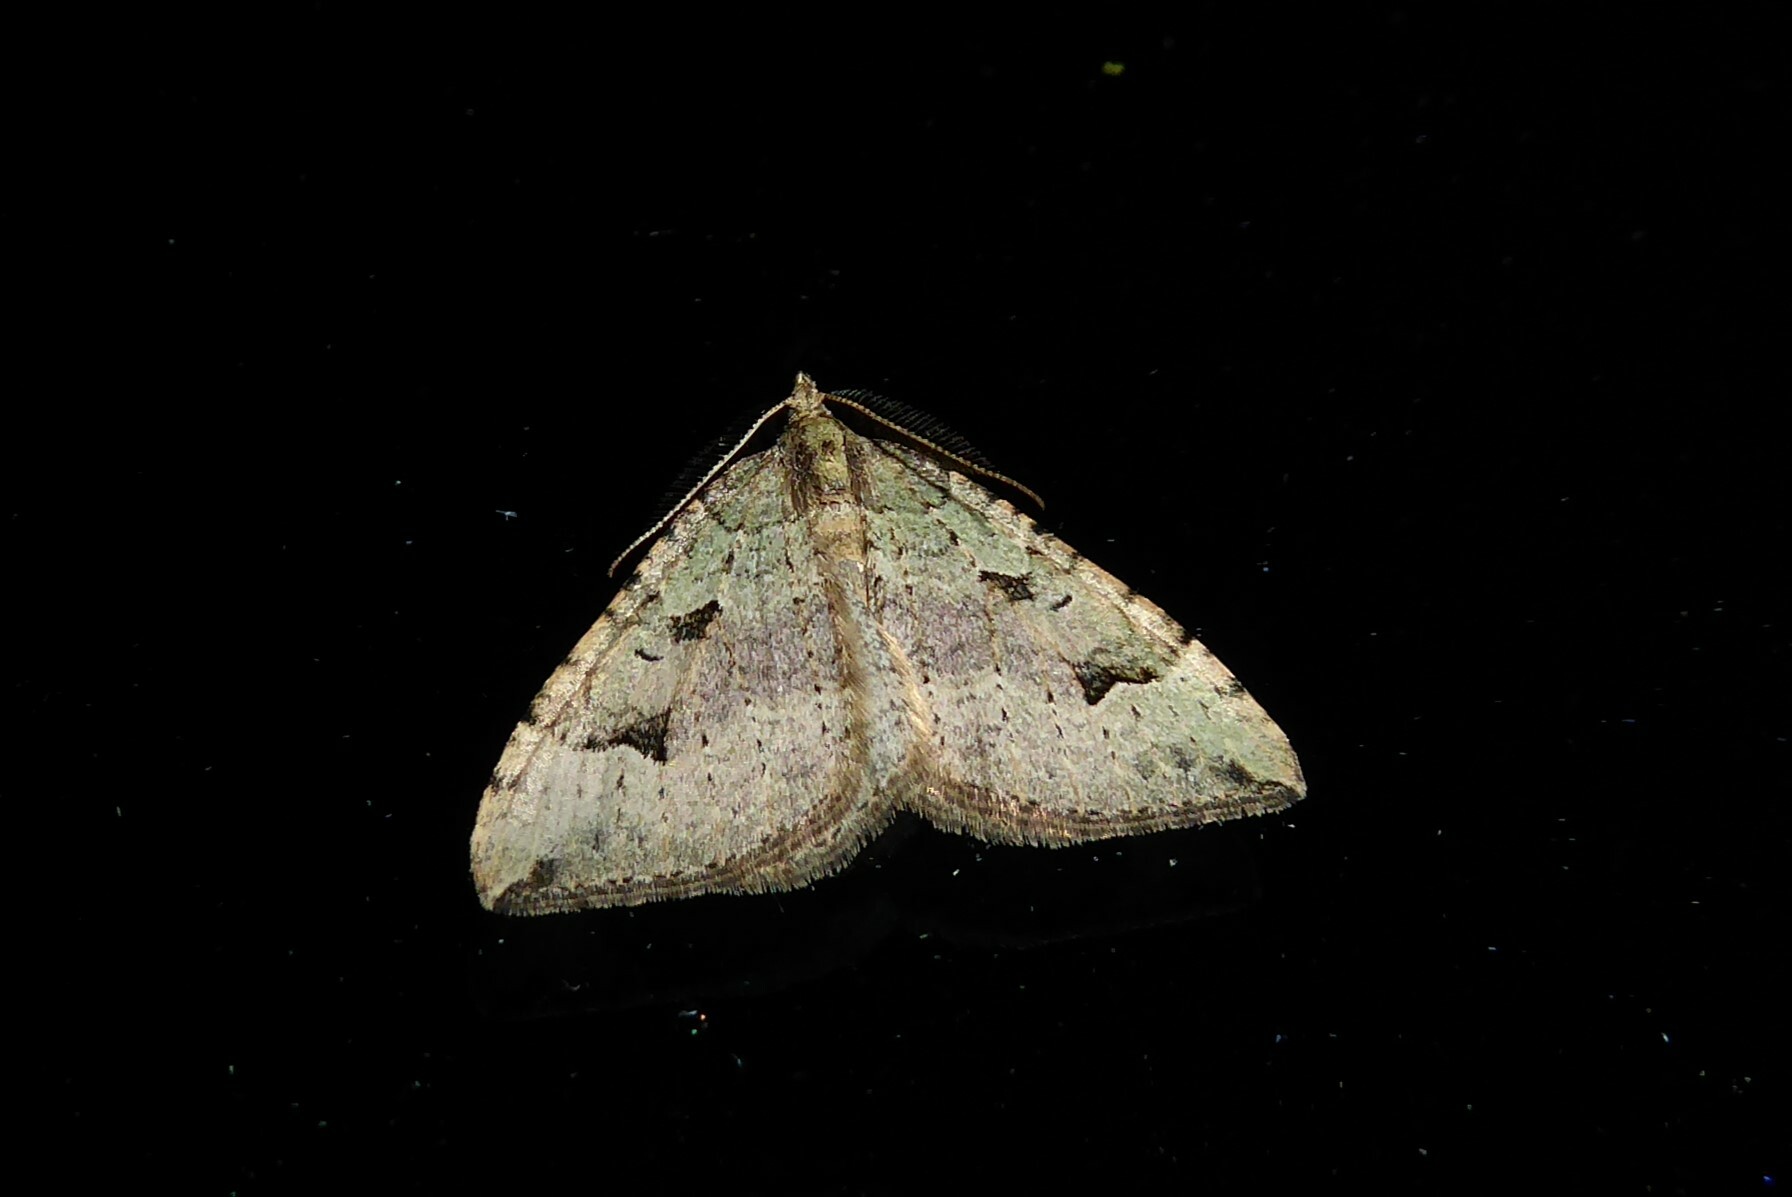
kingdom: Animalia
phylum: Arthropoda
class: Insecta
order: Lepidoptera
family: Geometridae
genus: Epyaxa
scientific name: Epyaxa rosearia
